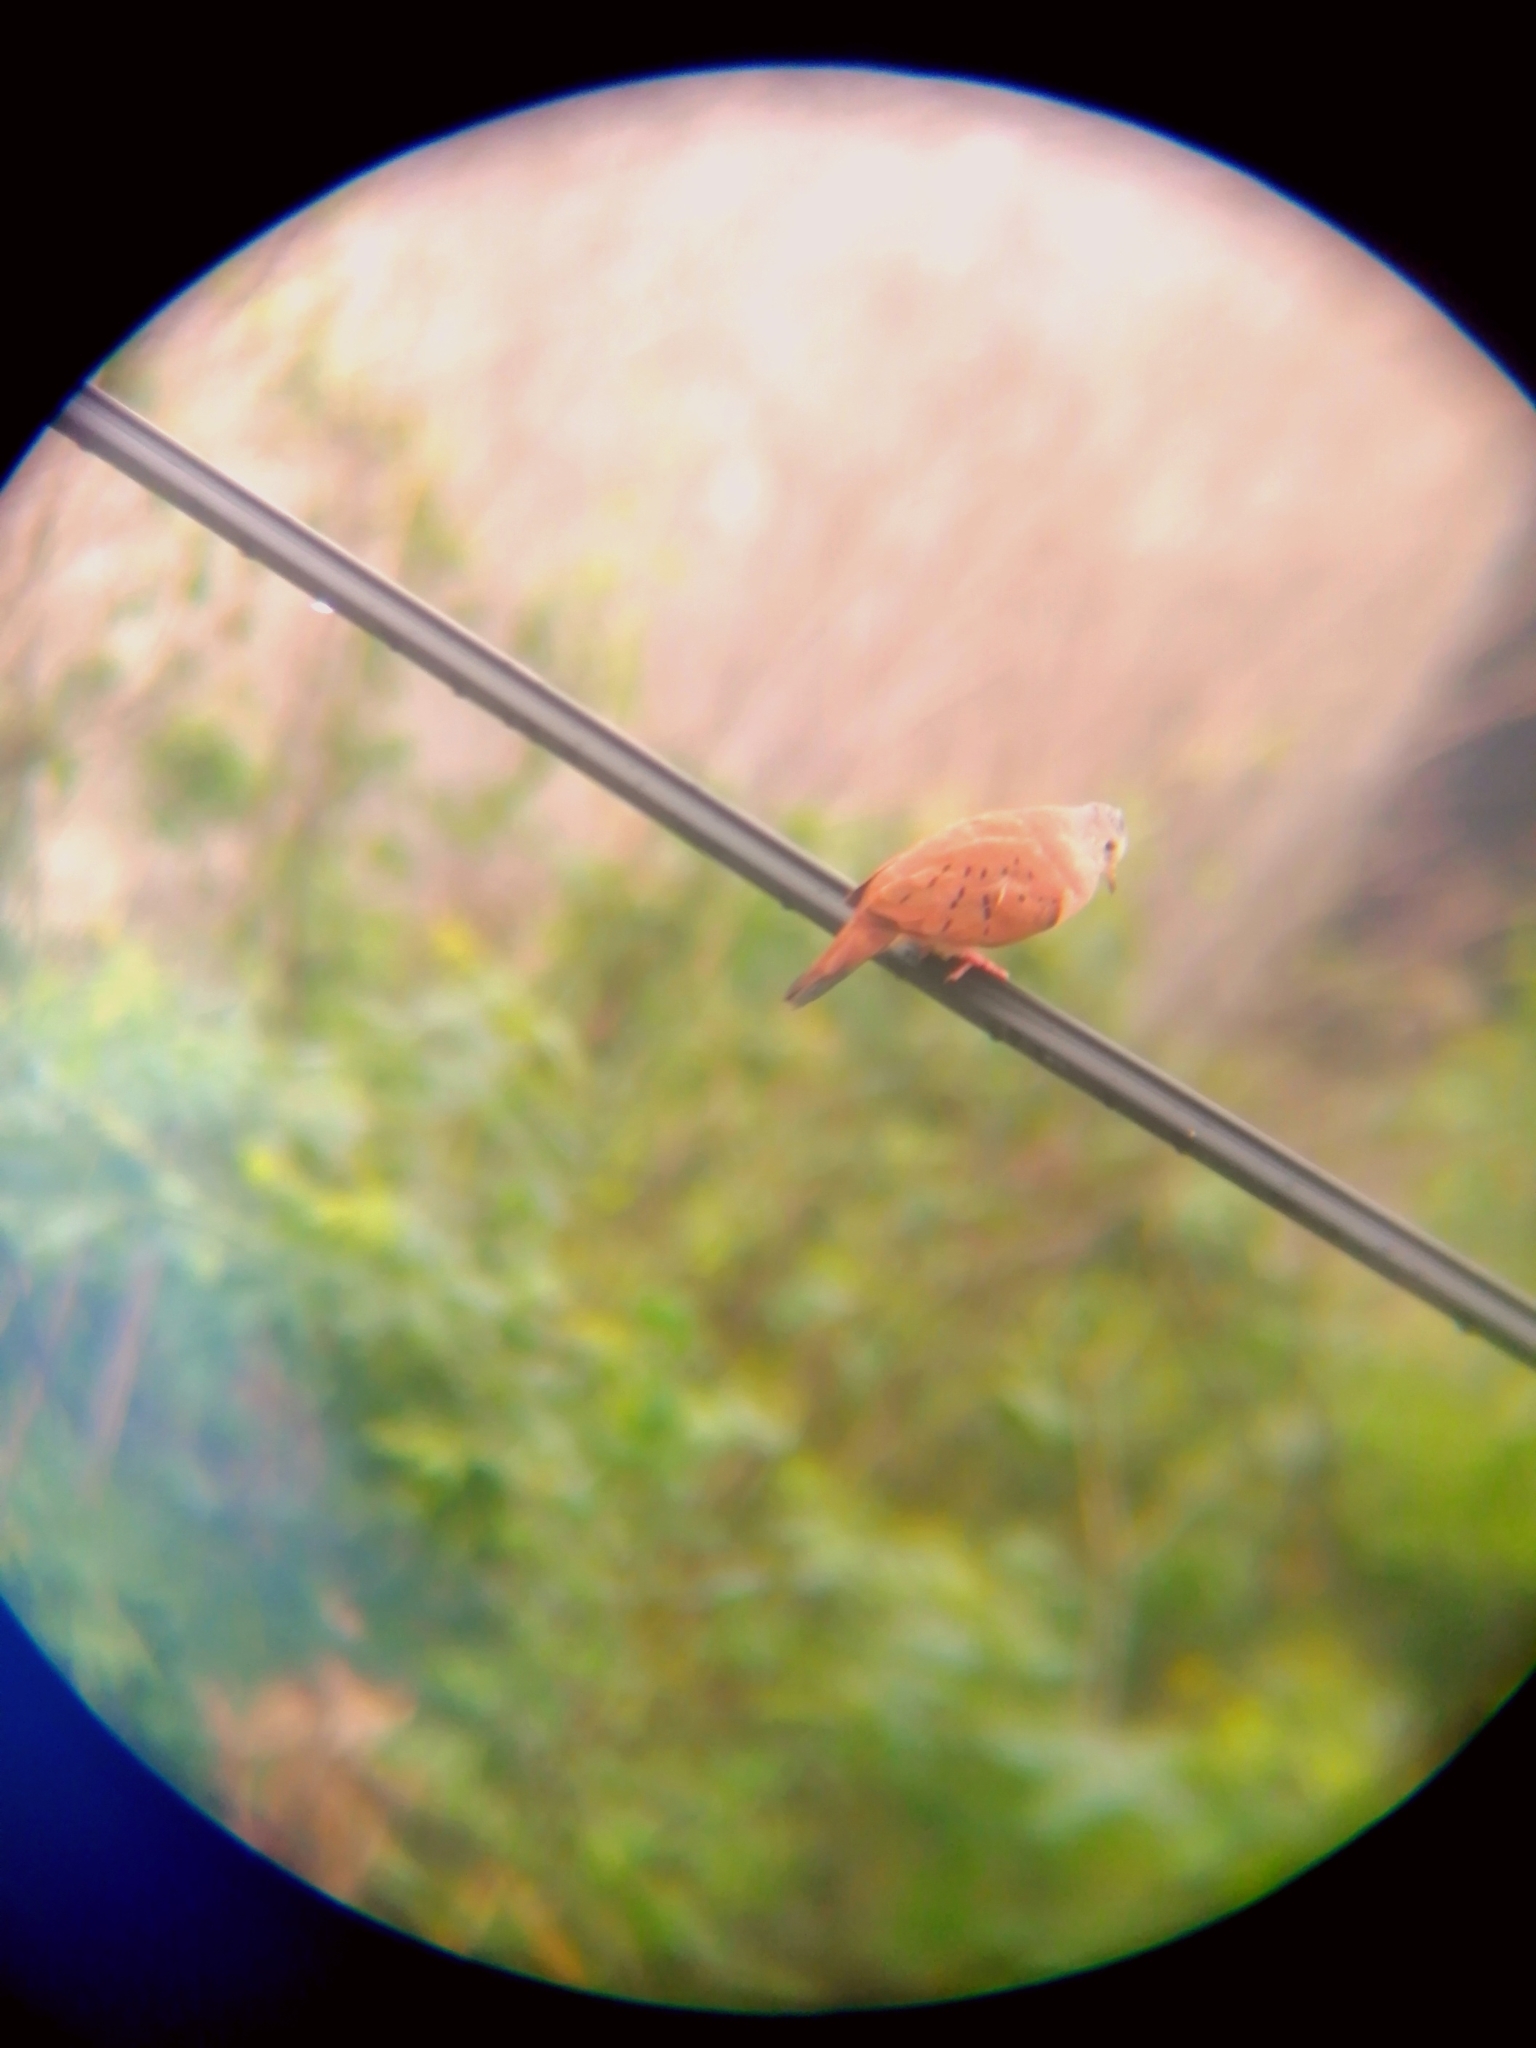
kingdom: Animalia
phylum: Chordata
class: Aves
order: Columbiformes
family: Columbidae
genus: Columbina
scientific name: Columbina talpacoti
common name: Ruddy ground dove
